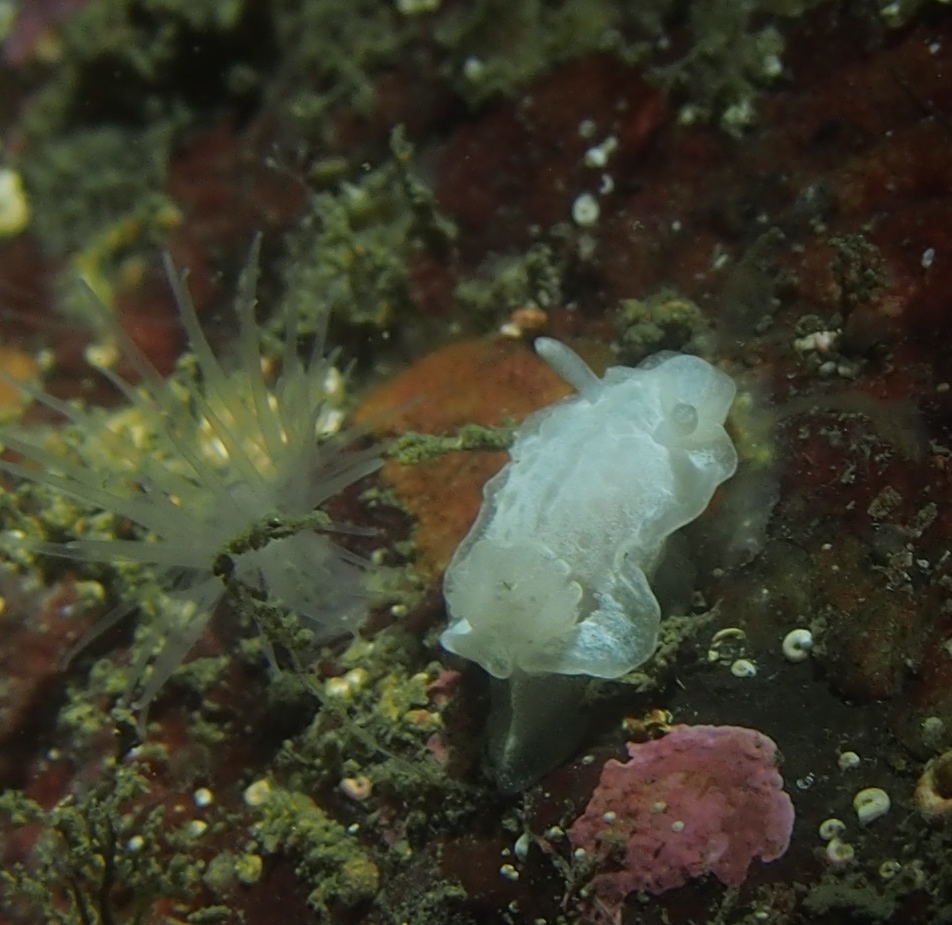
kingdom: Animalia
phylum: Mollusca
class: Gastropoda
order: Nudibranchia
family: Goniodorididae
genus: Okenia
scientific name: Okenia
